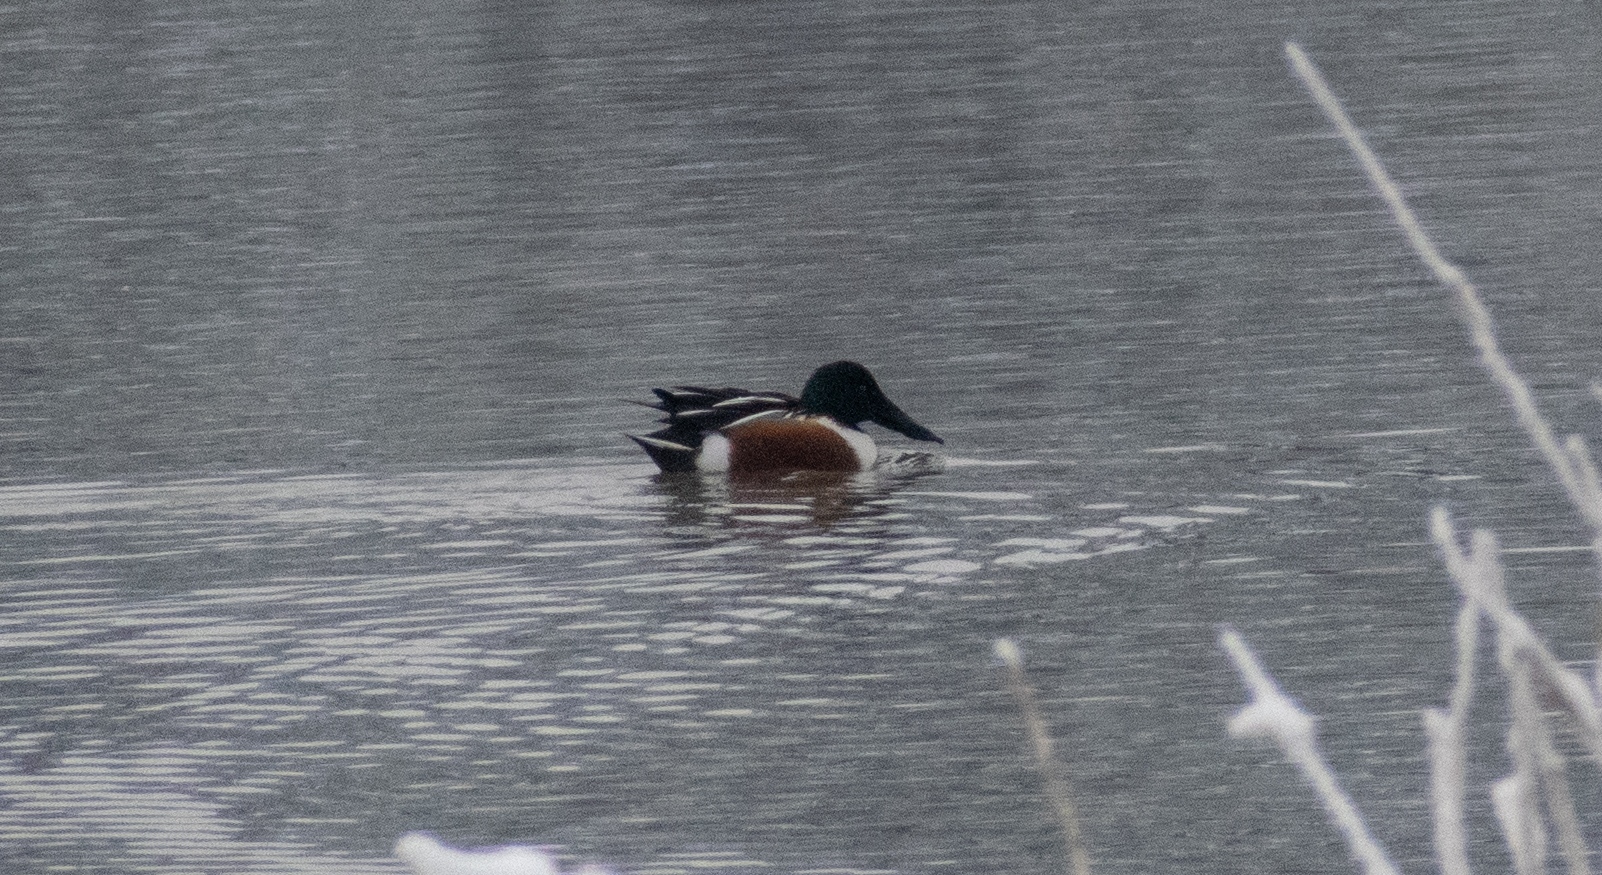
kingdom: Animalia
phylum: Chordata
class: Aves
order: Anseriformes
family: Anatidae
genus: Spatula
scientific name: Spatula clypeata
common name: Northern shoveler
